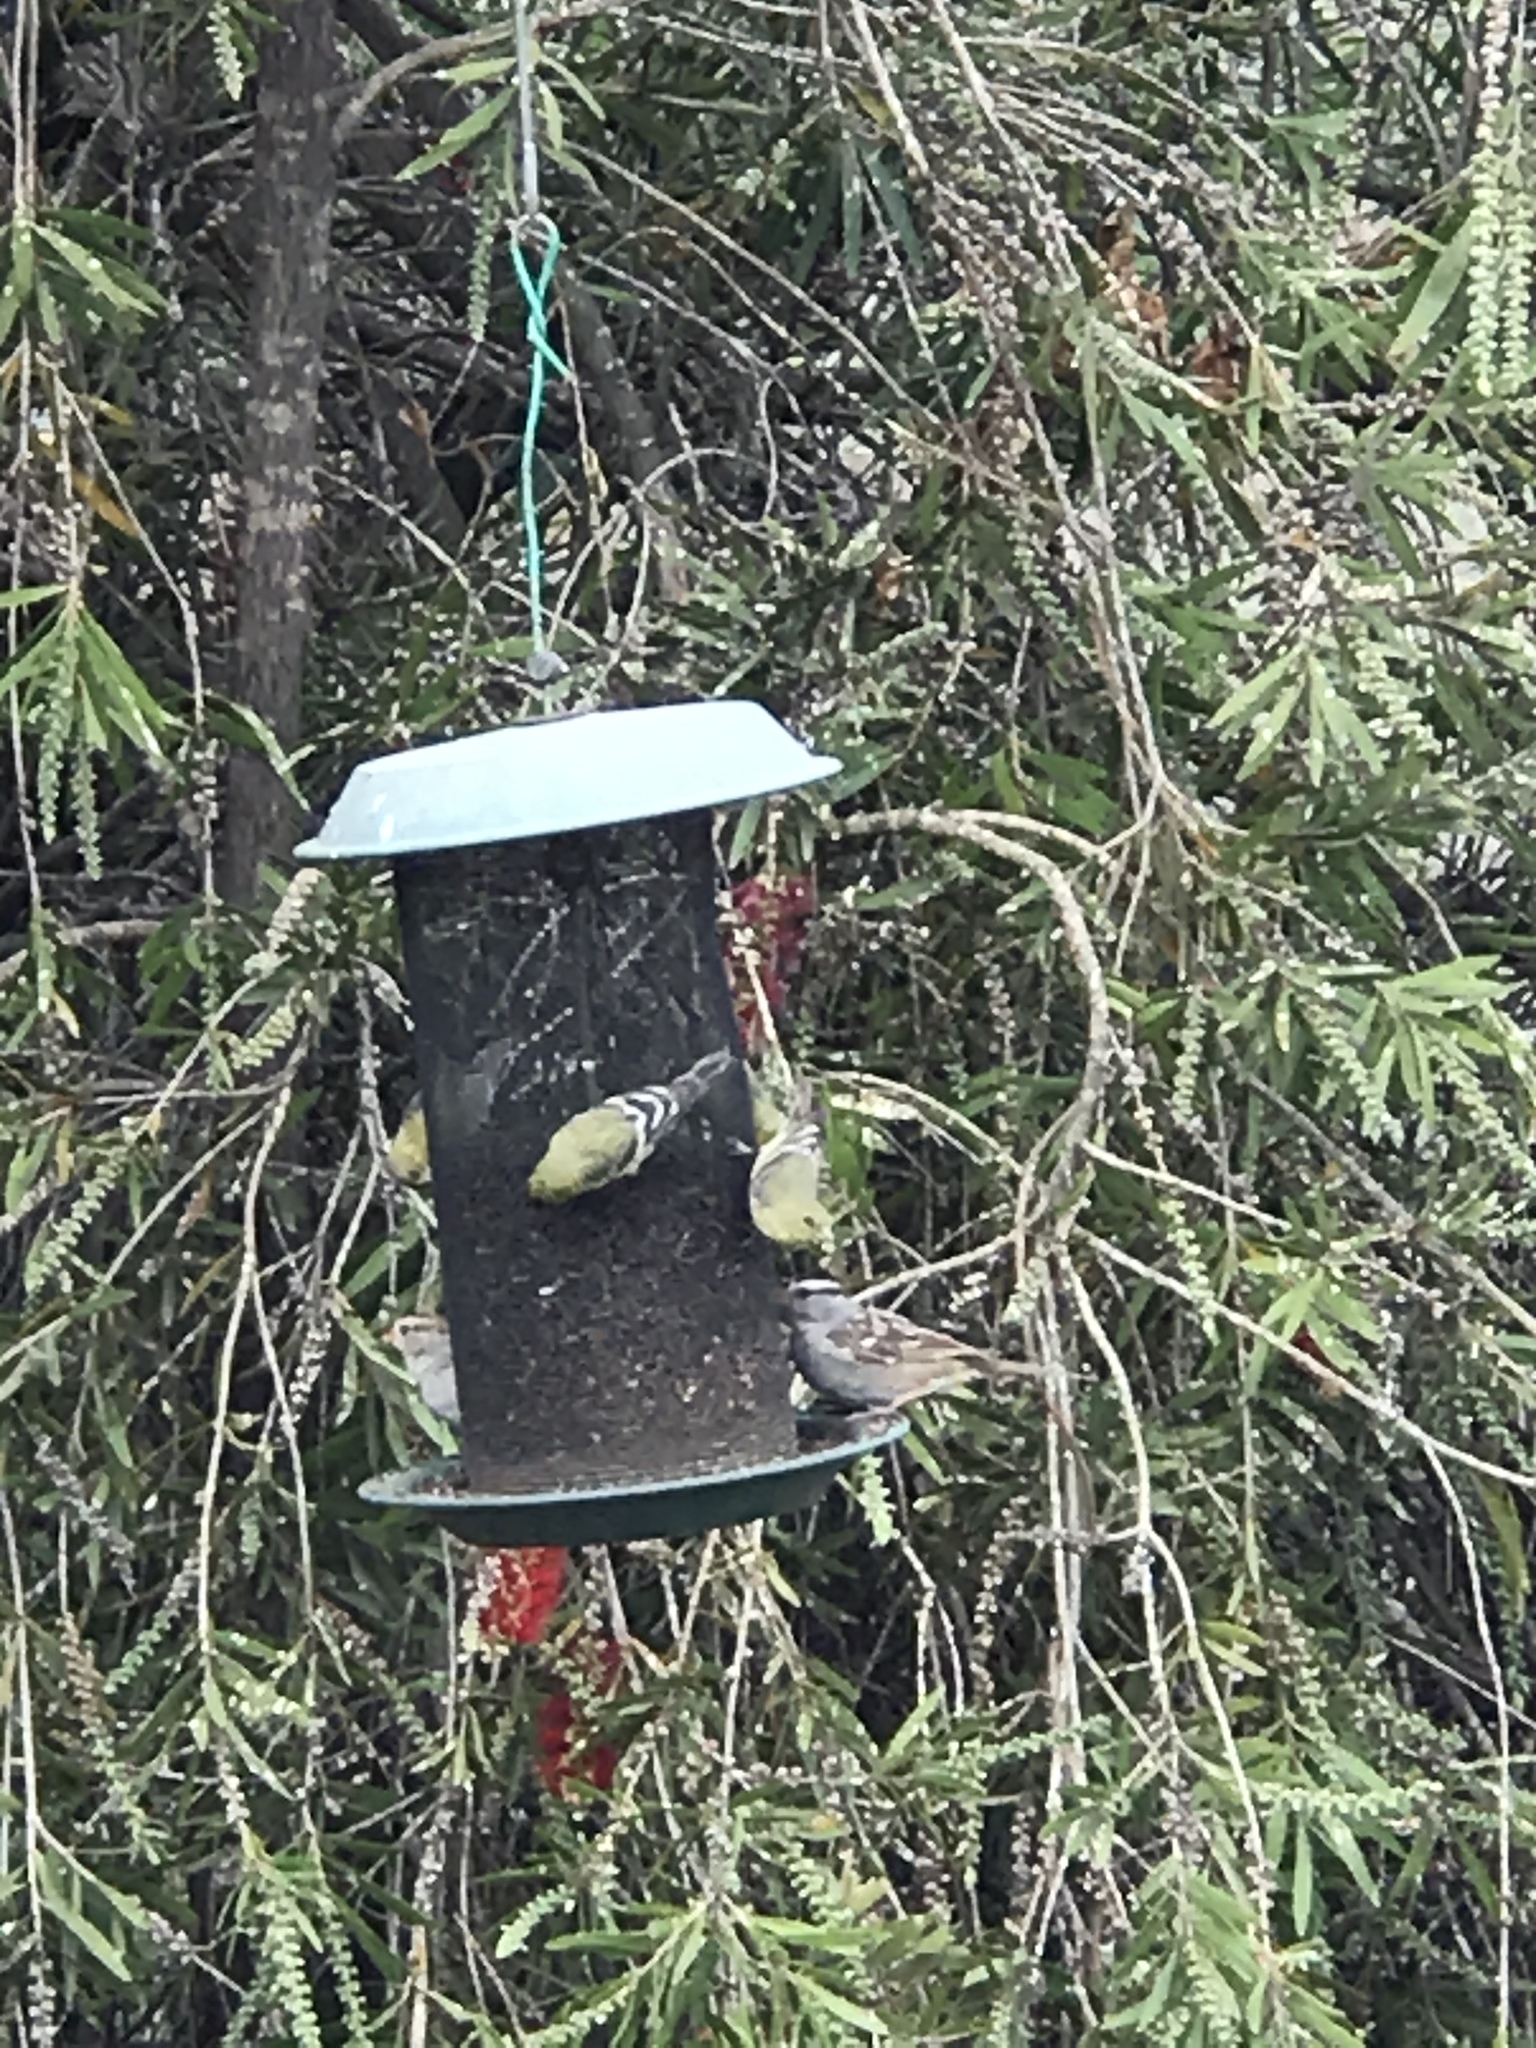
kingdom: Animalia
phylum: Chordata
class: Aves
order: Passeriformes
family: Fringillidae
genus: Spinus
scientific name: Spinus psaltria
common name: Lesser goldfinch
